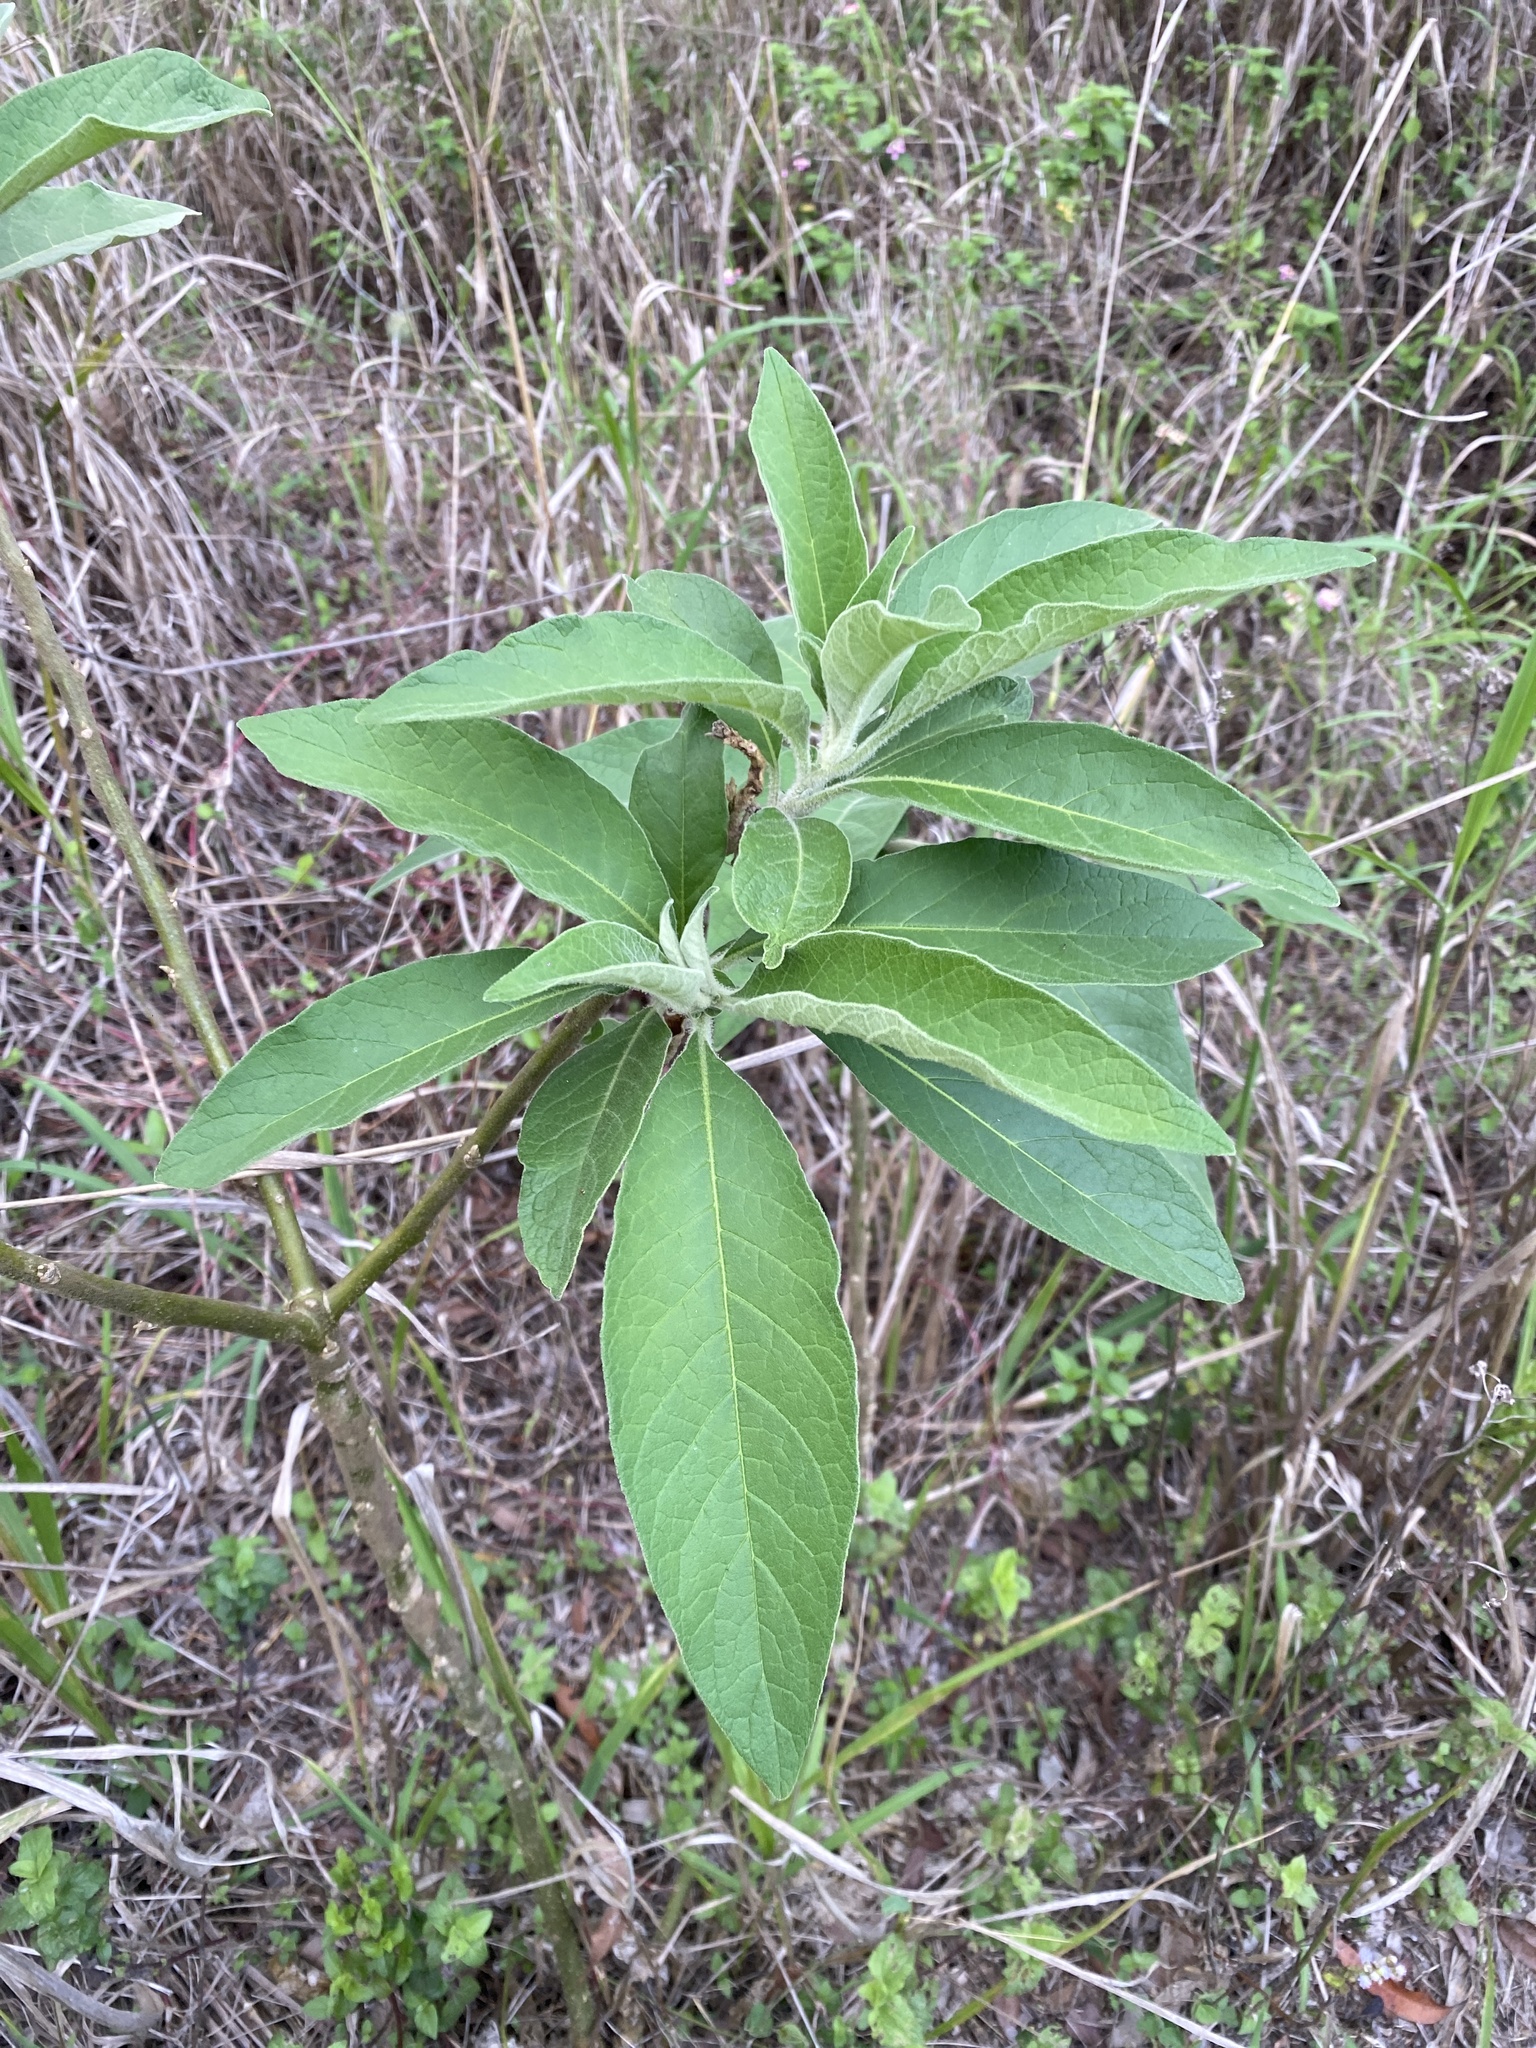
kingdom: Plantae
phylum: Tracheophyta
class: Magnoliopsida
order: Solanales
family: Solanaceae
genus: Solanum
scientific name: Solanum mauritianum
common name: Earleaf nightshade
